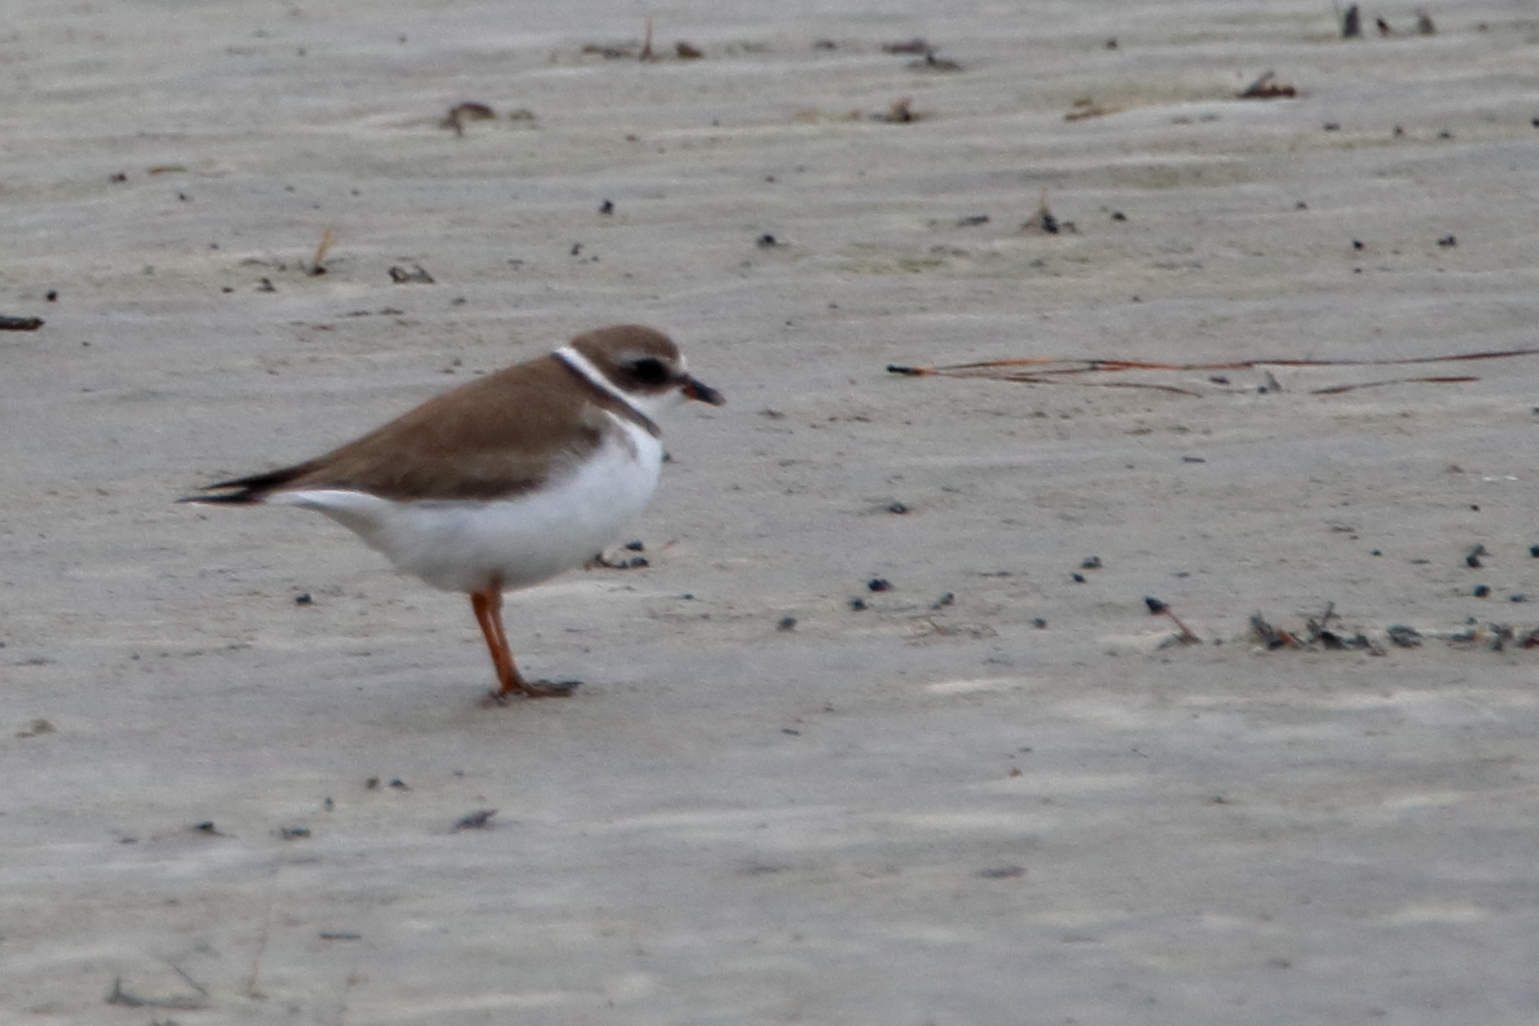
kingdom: Animalia
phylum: Chordata
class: Aves
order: Charadriiformes
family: Charadriidae
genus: Charadrius
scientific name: Charadrius semipalmatus
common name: Semipalmated plover
